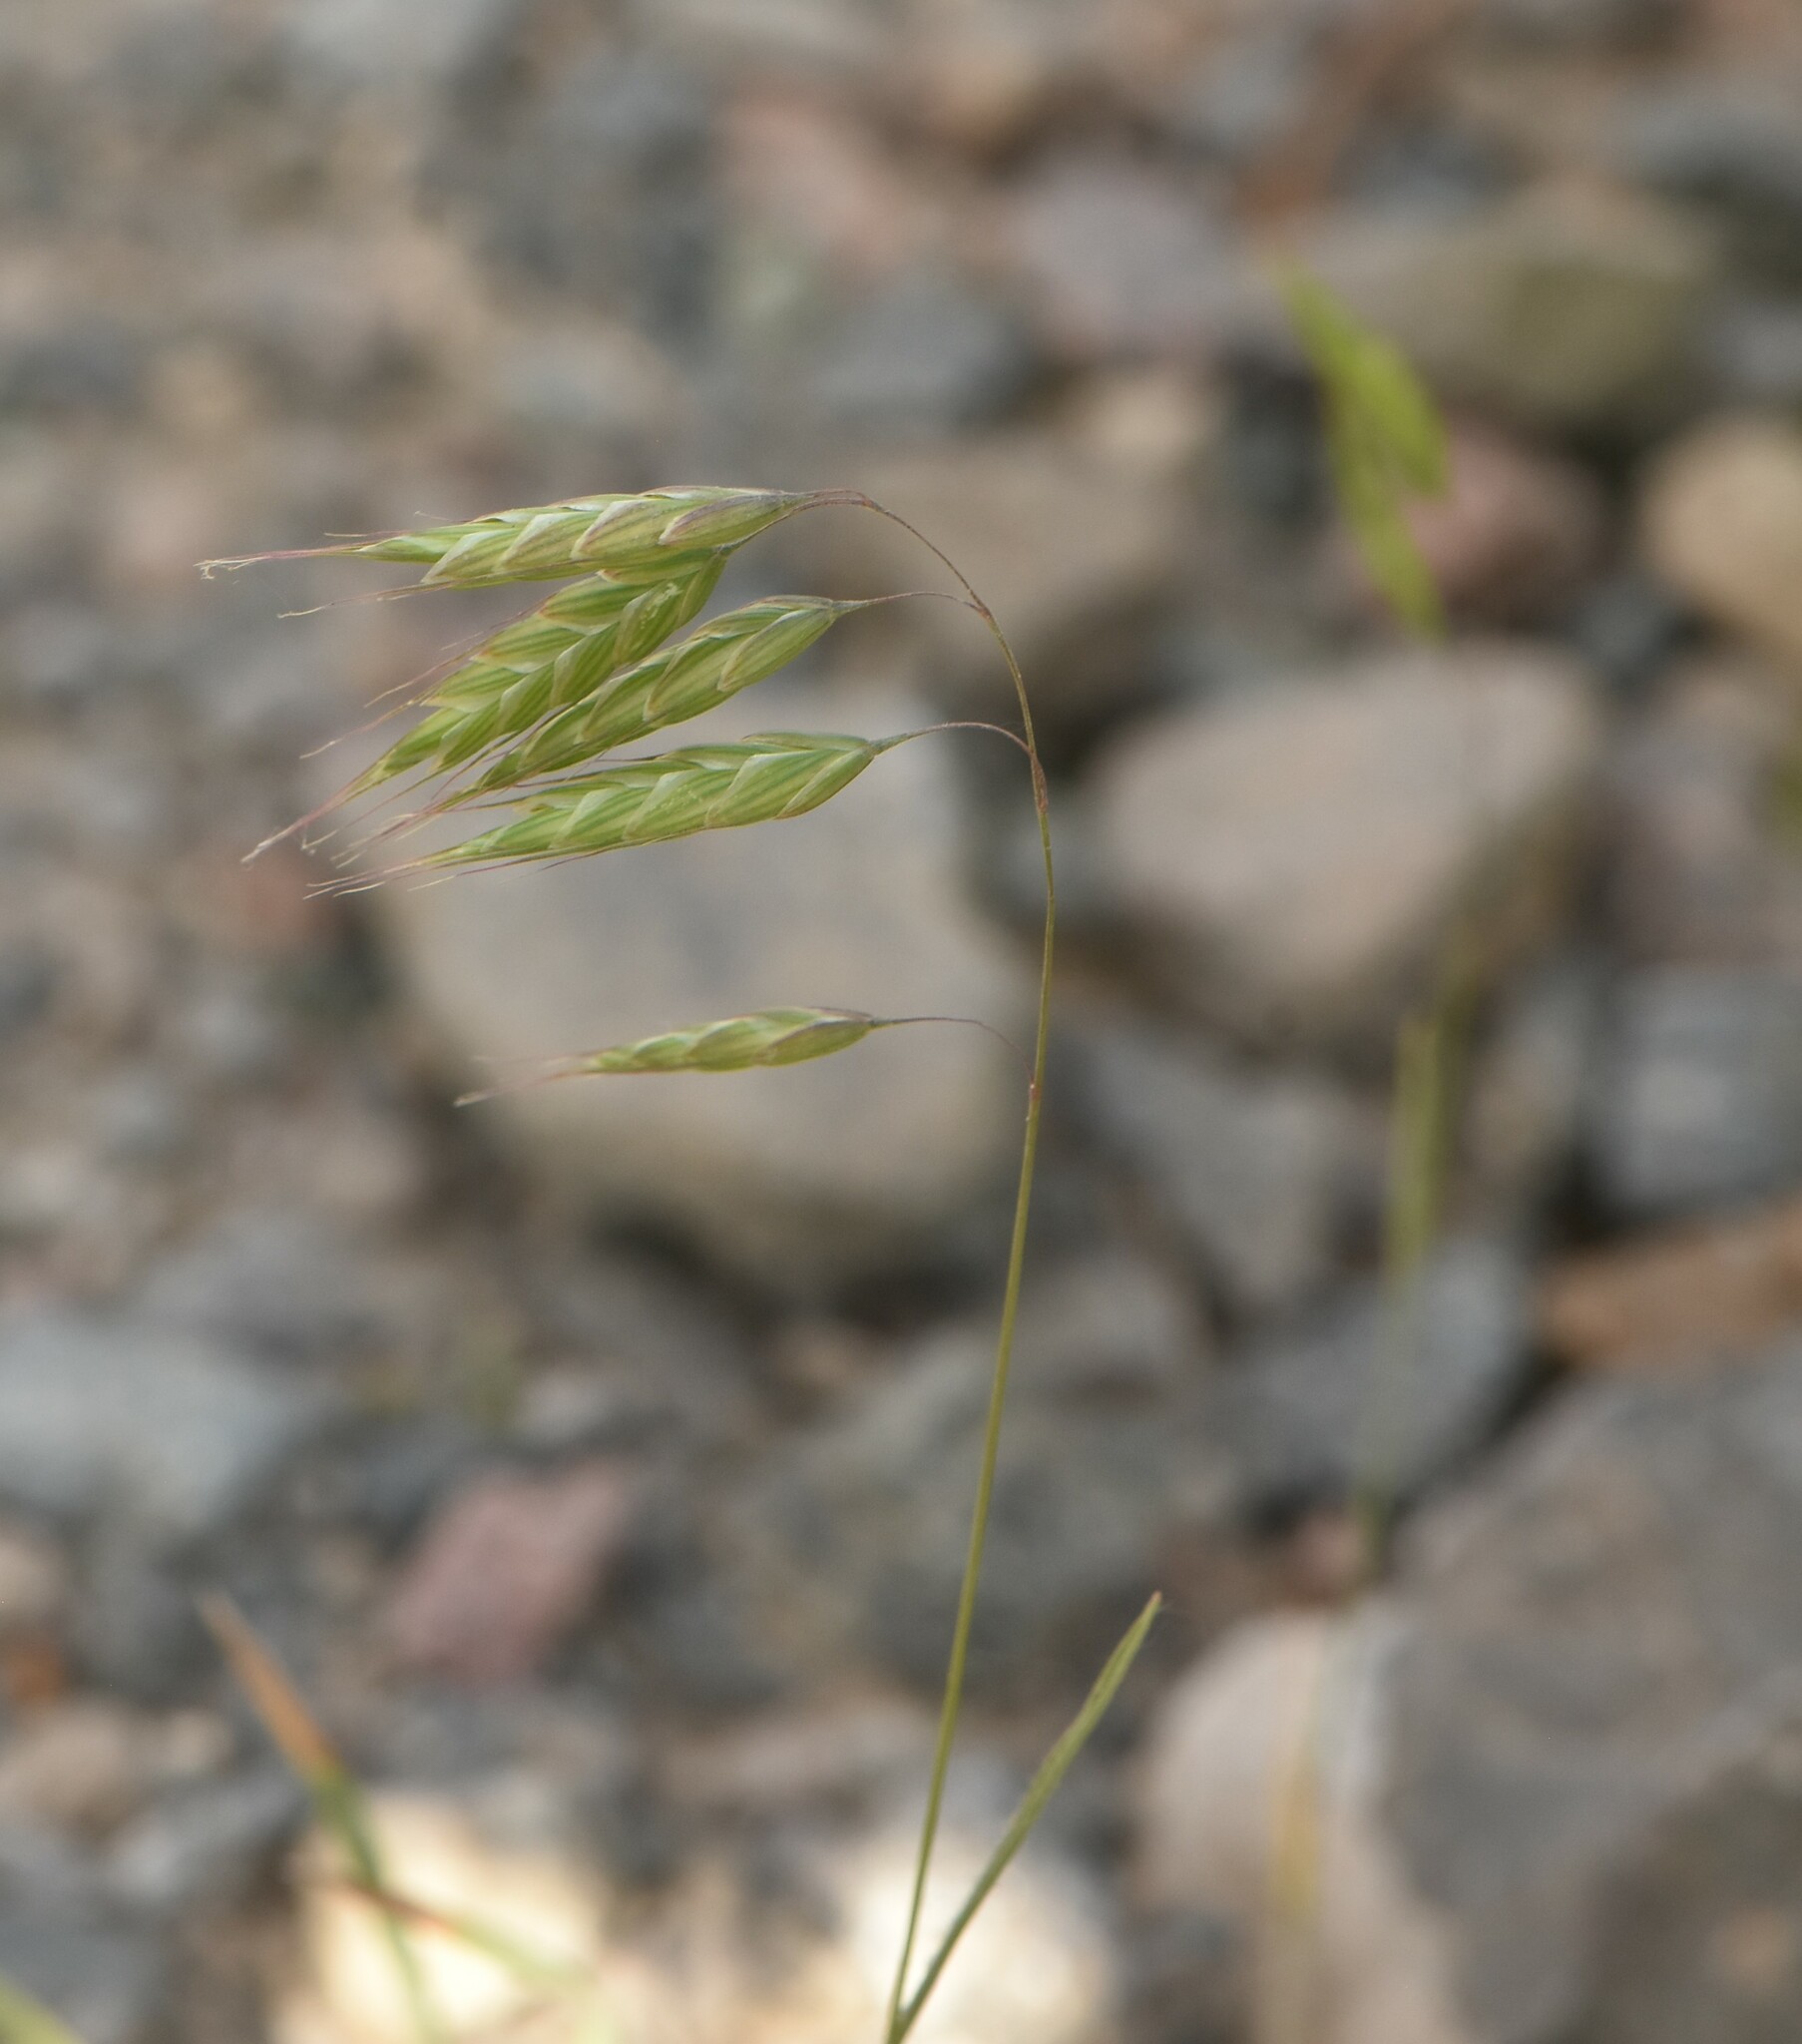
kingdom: Plantae
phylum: Tracheophyta
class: Liliopsida
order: Poales
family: Poaceae
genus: Bromus
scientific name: Bromus squarrosus
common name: Corn brome
